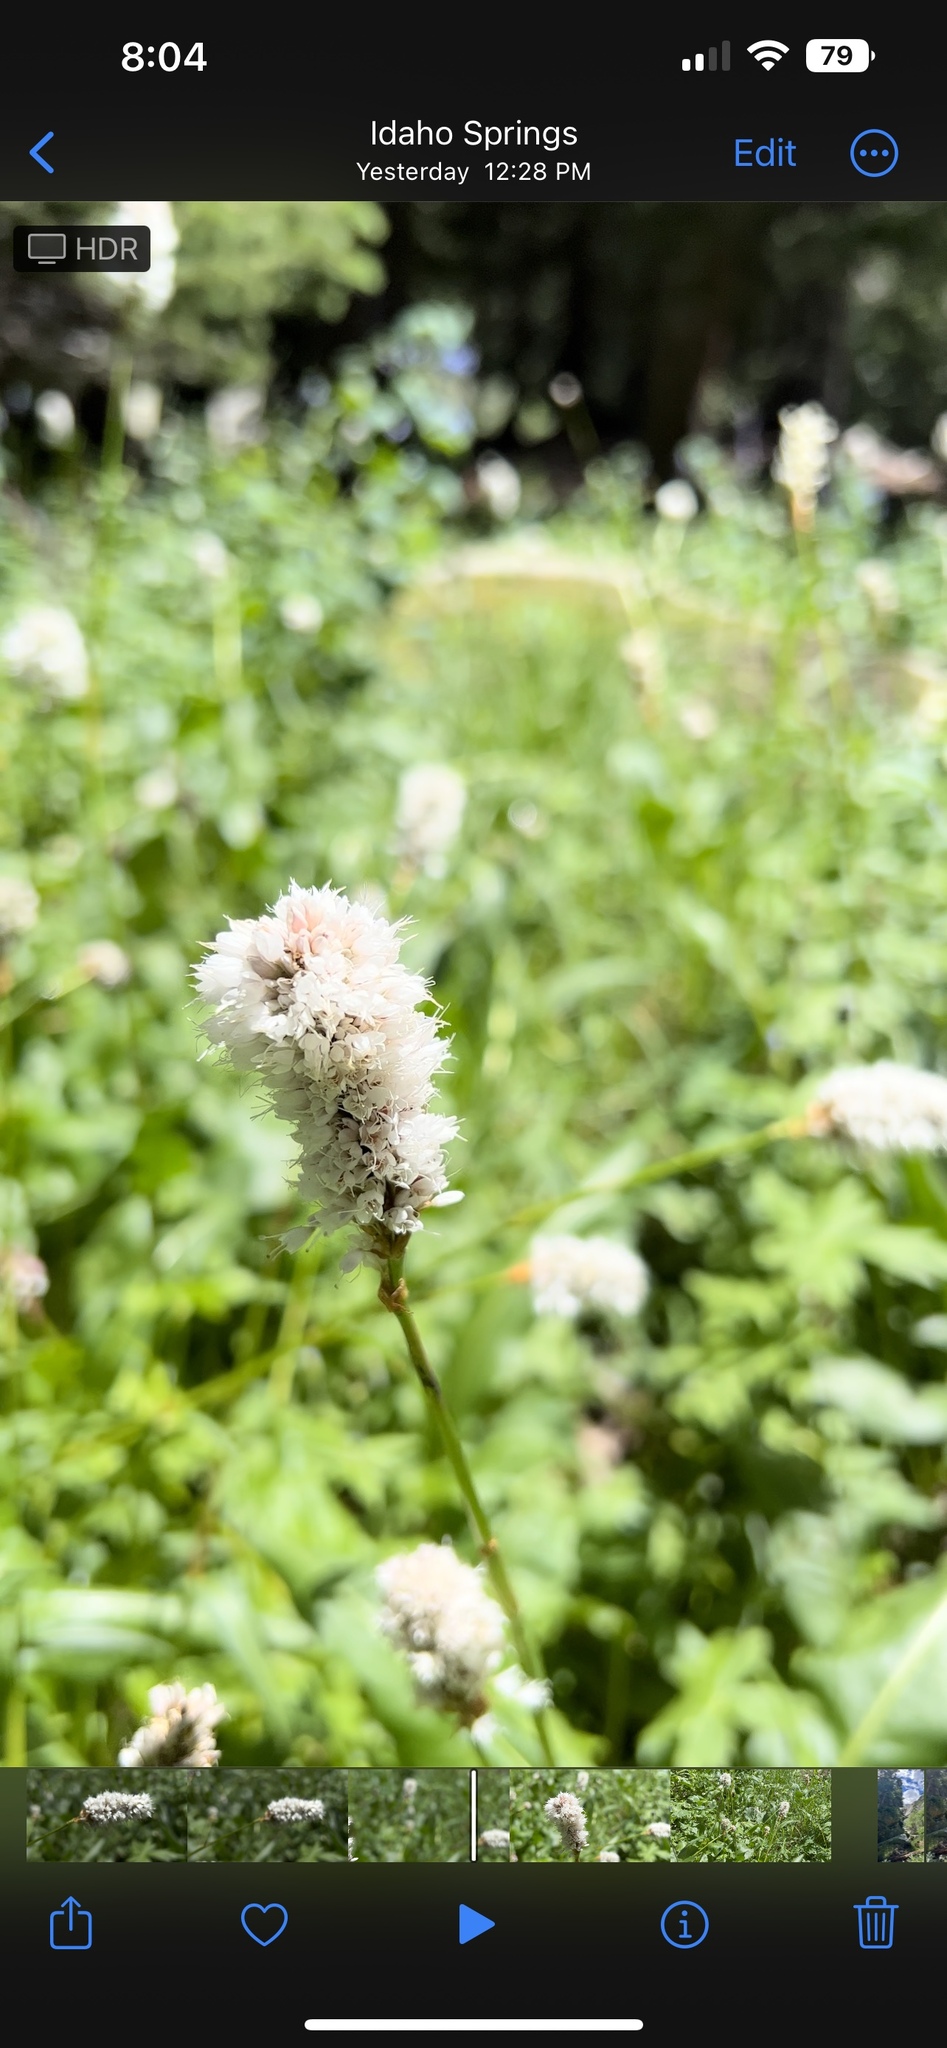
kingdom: Plantae
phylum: Tracheophyta
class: Magnoliopsida
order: Caryophyllales
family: Polygonaceae
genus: Bistorta
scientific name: Bistorta bistortoides
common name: American bistort
